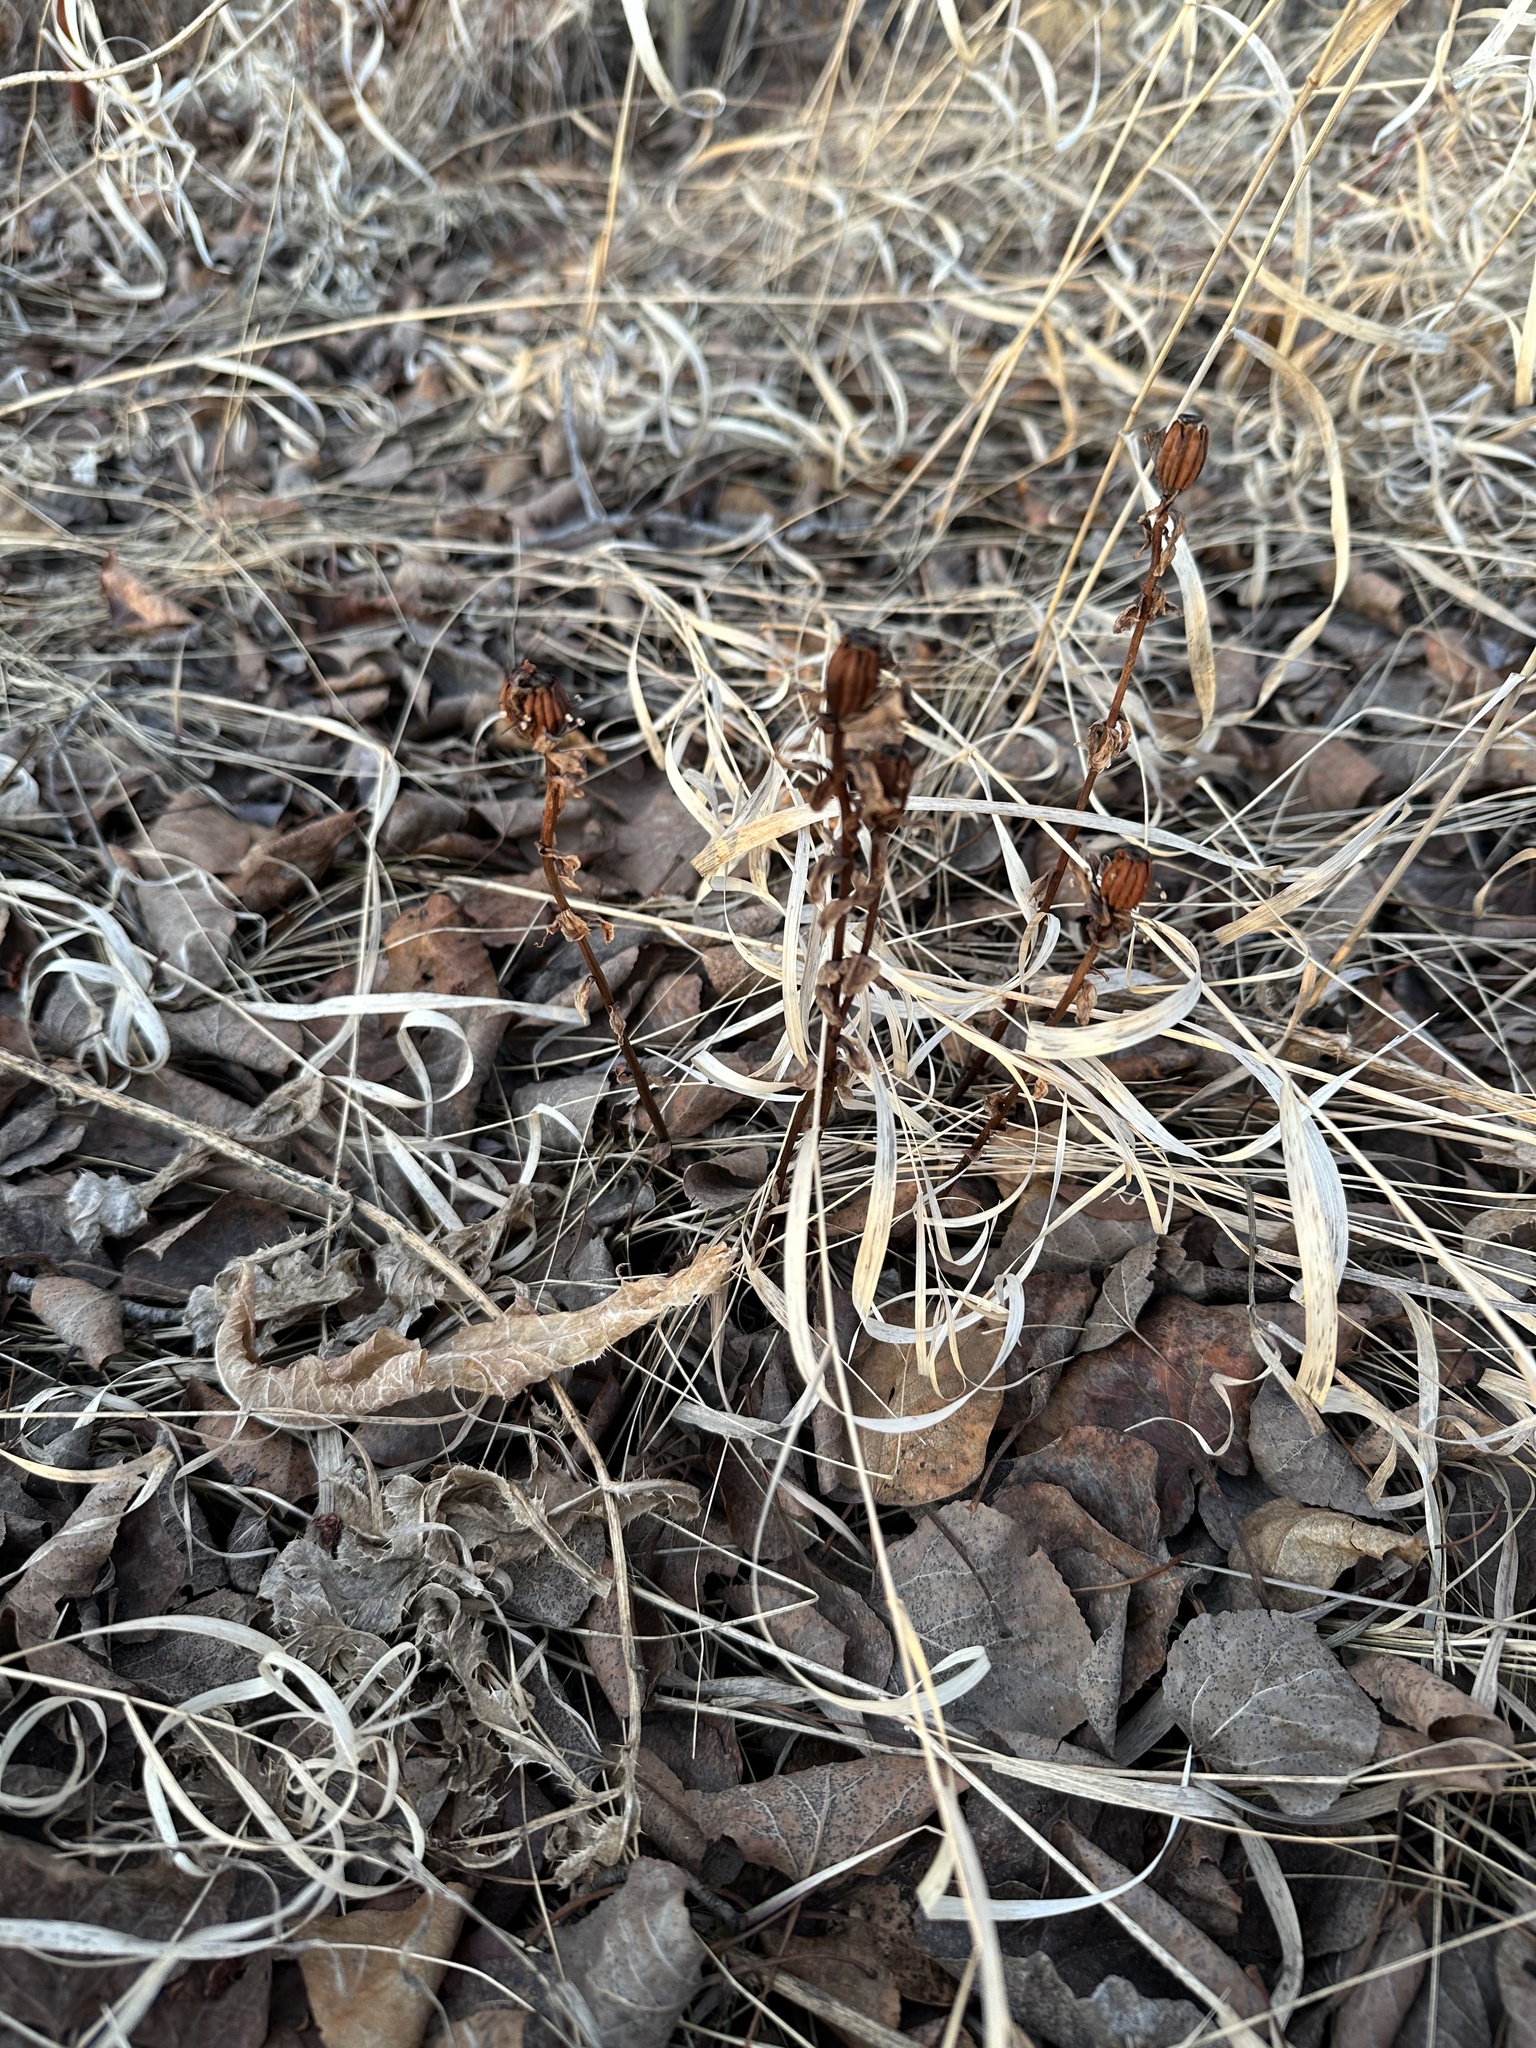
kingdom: Plantae
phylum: Tracheophyta
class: Magnoliopsida
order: Ericales
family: Ericaceae
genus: Monotropa
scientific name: Monotropa uniflora
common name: Convulsion root
